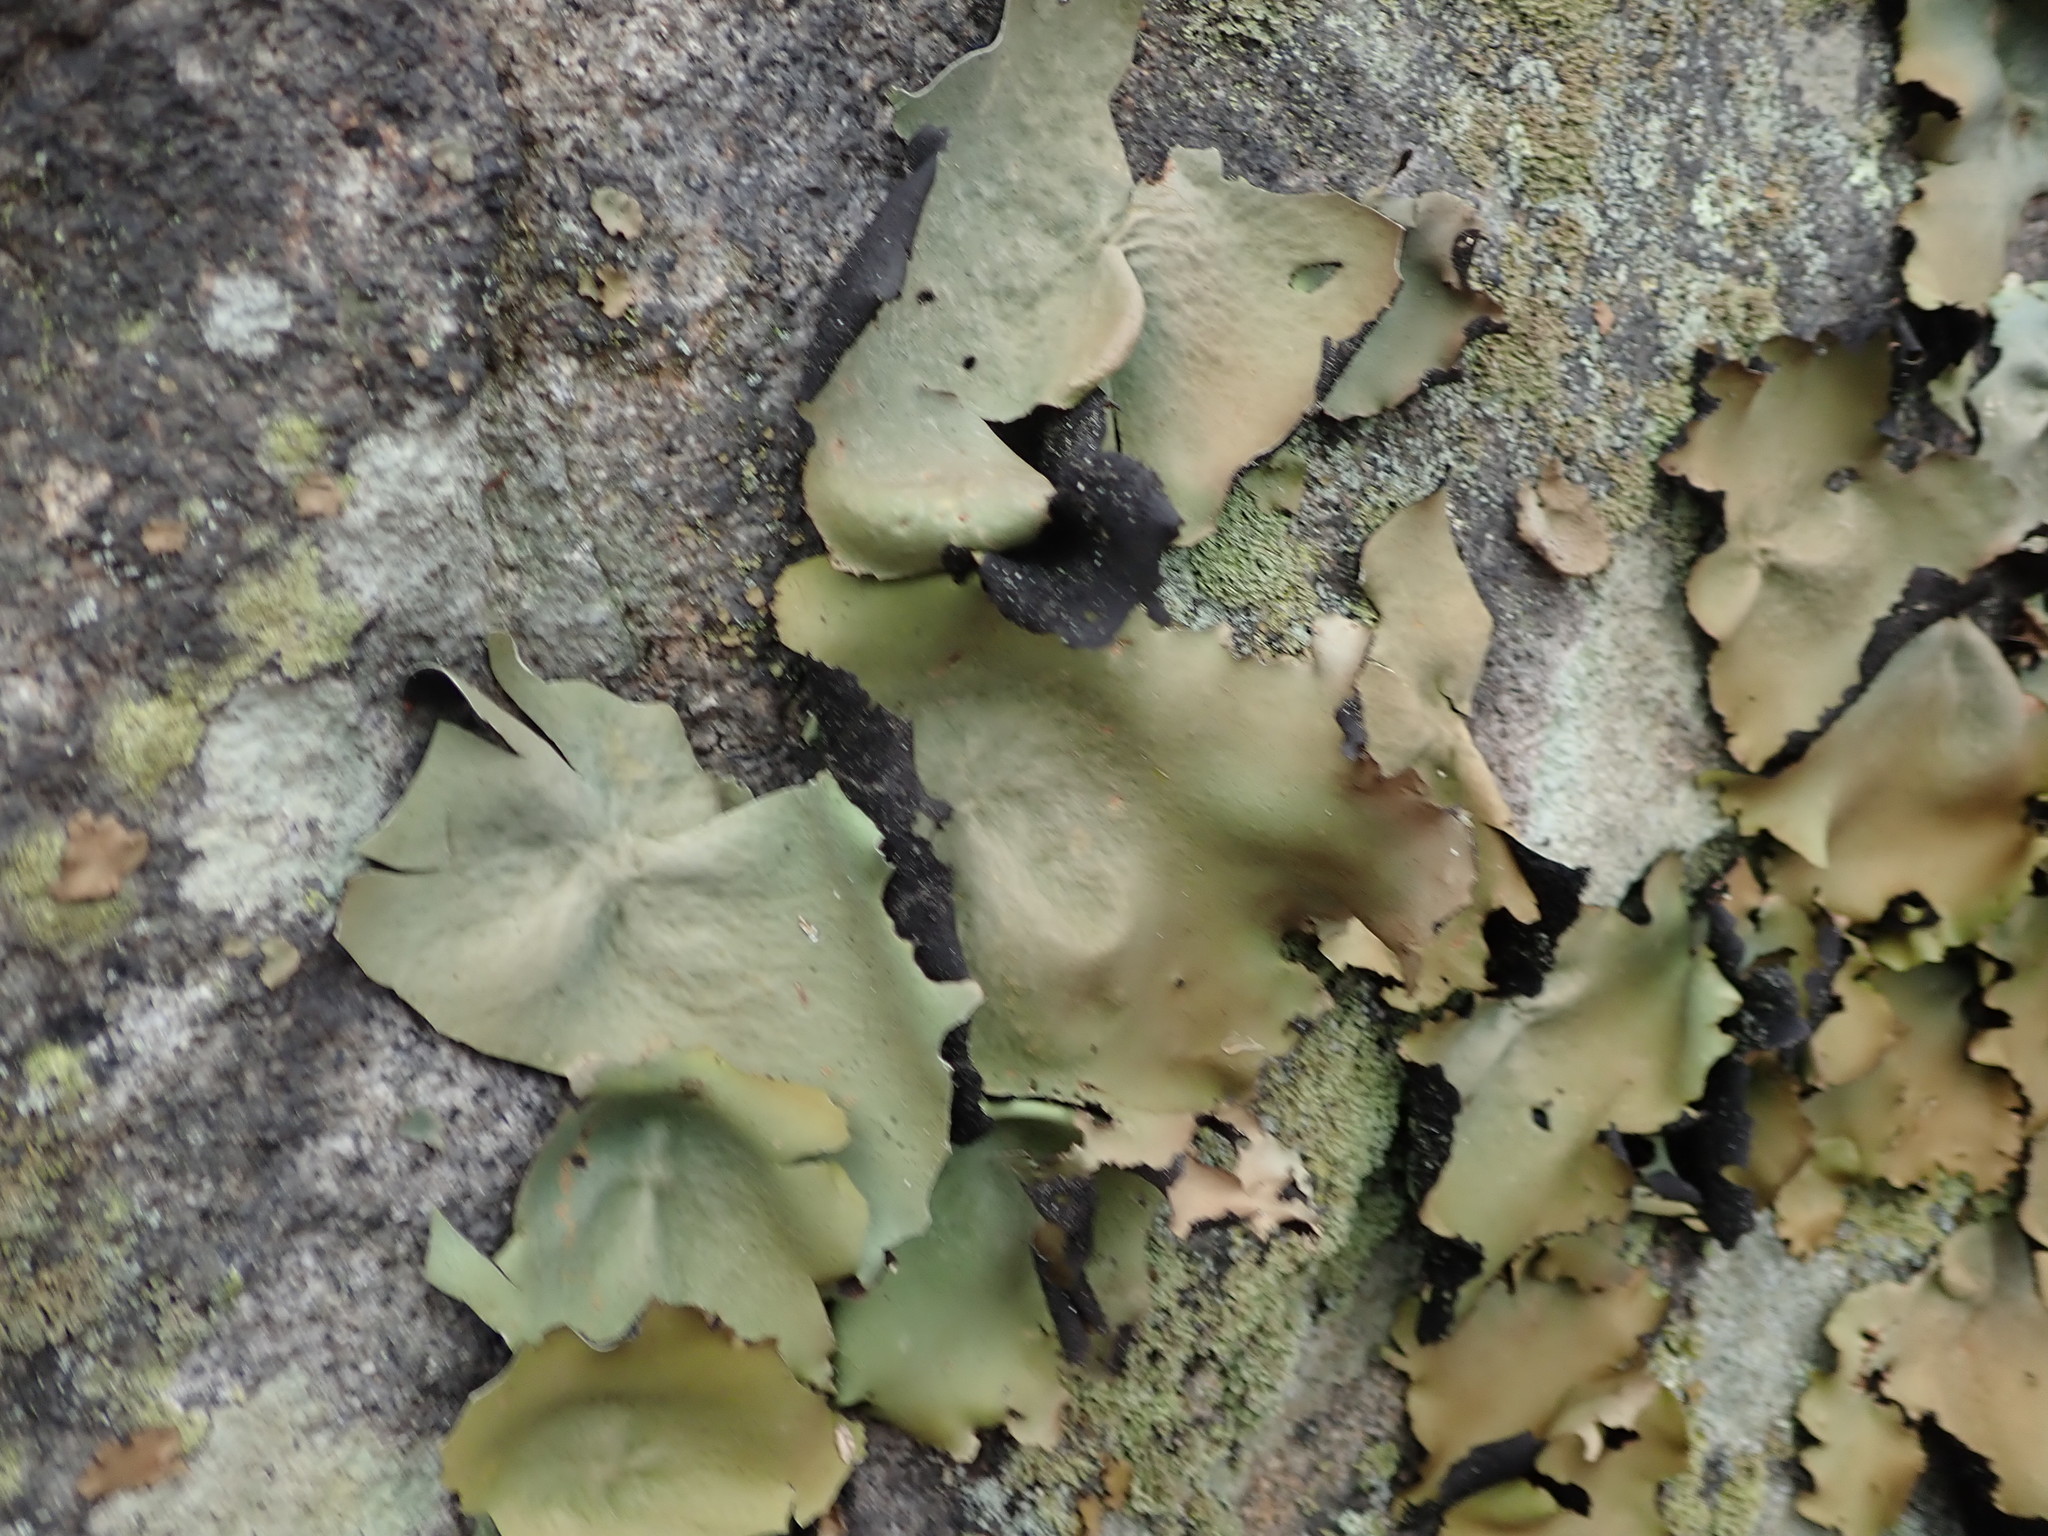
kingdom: Fungi
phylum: Ascomycota
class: Lecanoromycetes
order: Umbilicariales
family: Umbilicariaceae
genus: Umbilicaria
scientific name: Umbilicaria mammulata
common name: Smooth rock tripe
